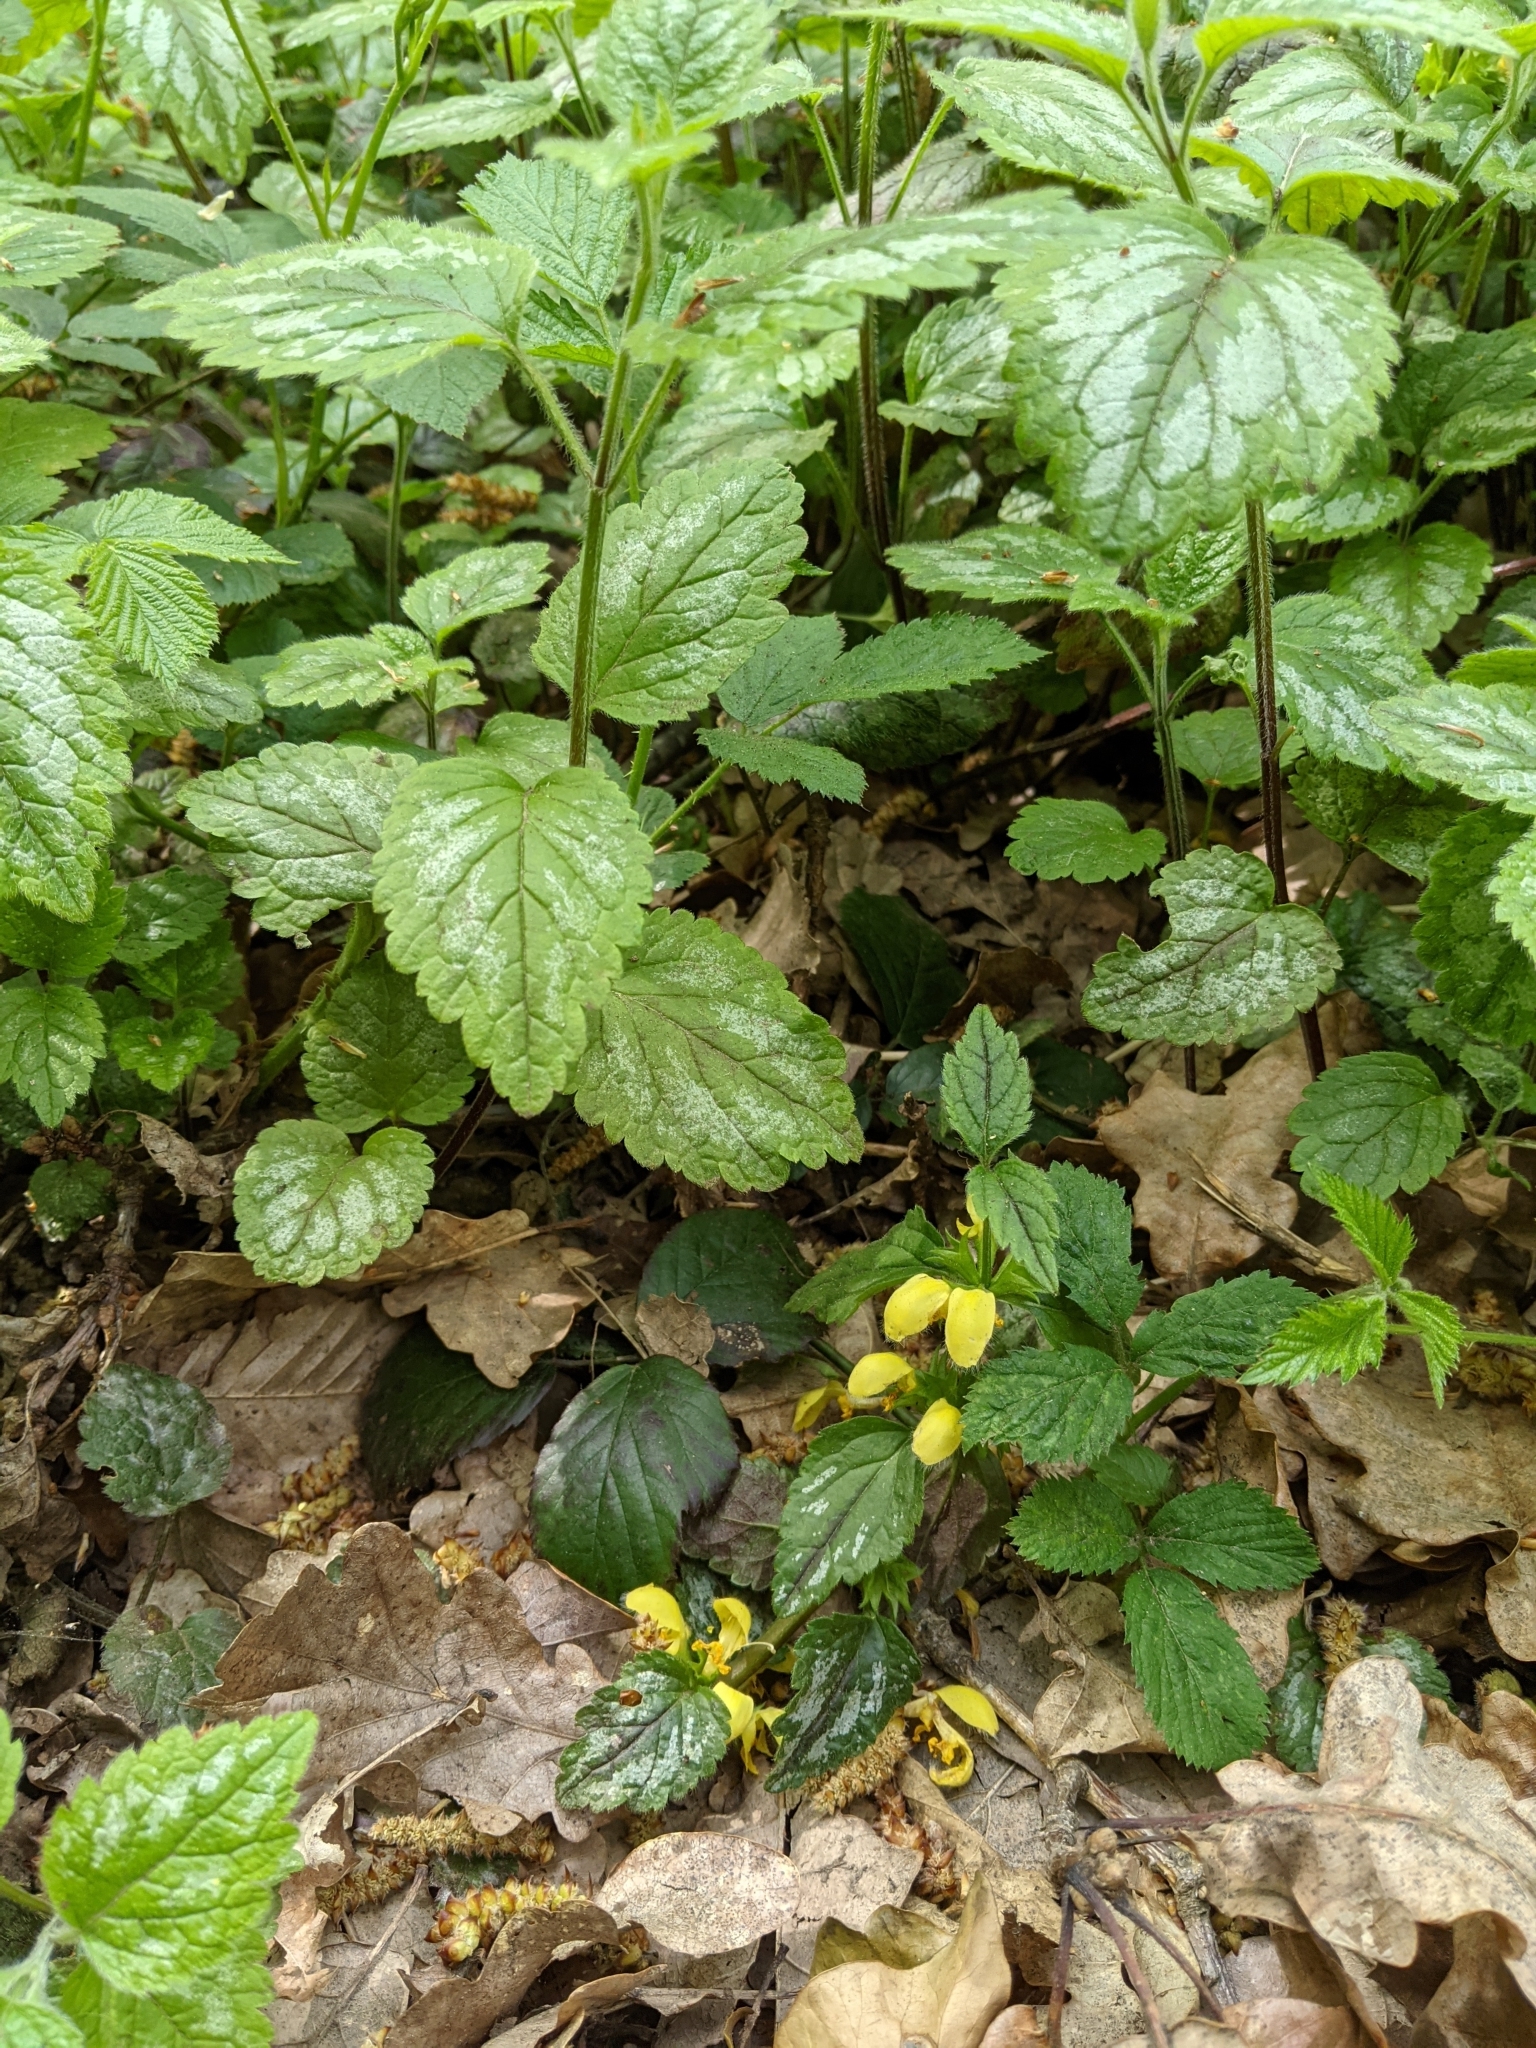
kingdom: Plantae
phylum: Tracheophyta
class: Magnoliopsida
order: Lamiales
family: Lamiaceae
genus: Lamium
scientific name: Lamium galeobdolon
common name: Yellow archangel
